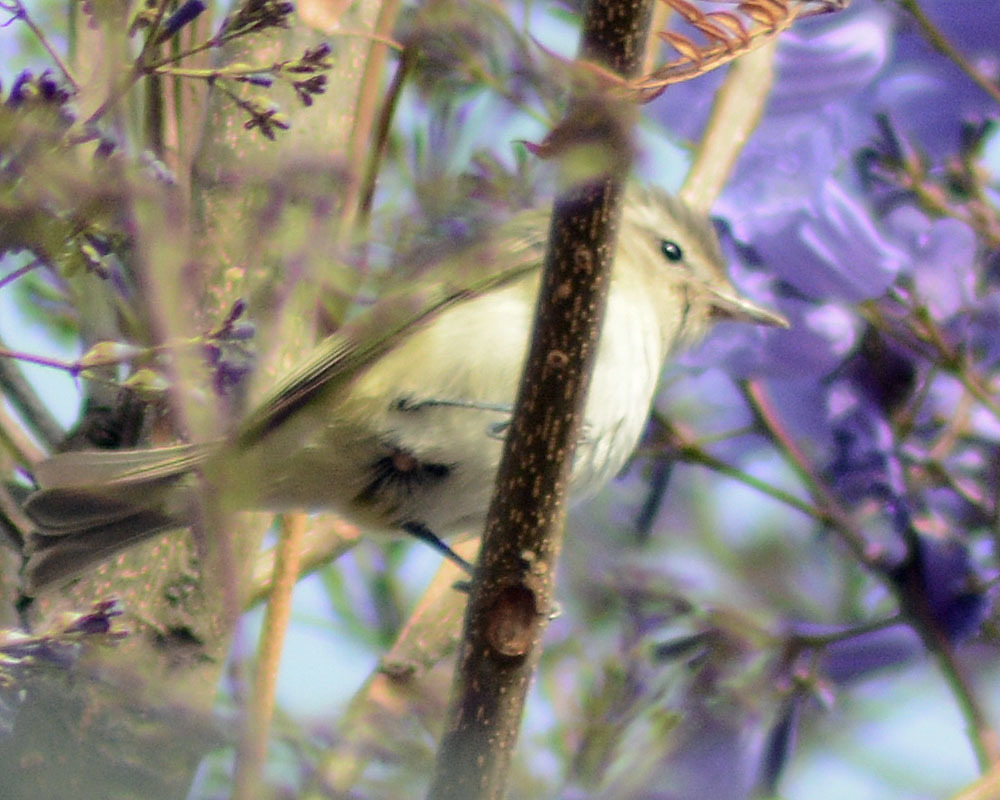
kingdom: Animalia
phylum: Chordata
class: Aves
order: Passeriformes
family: Vireonidae
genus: Vireo
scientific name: Vireo gilvus
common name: Warbling vireo
